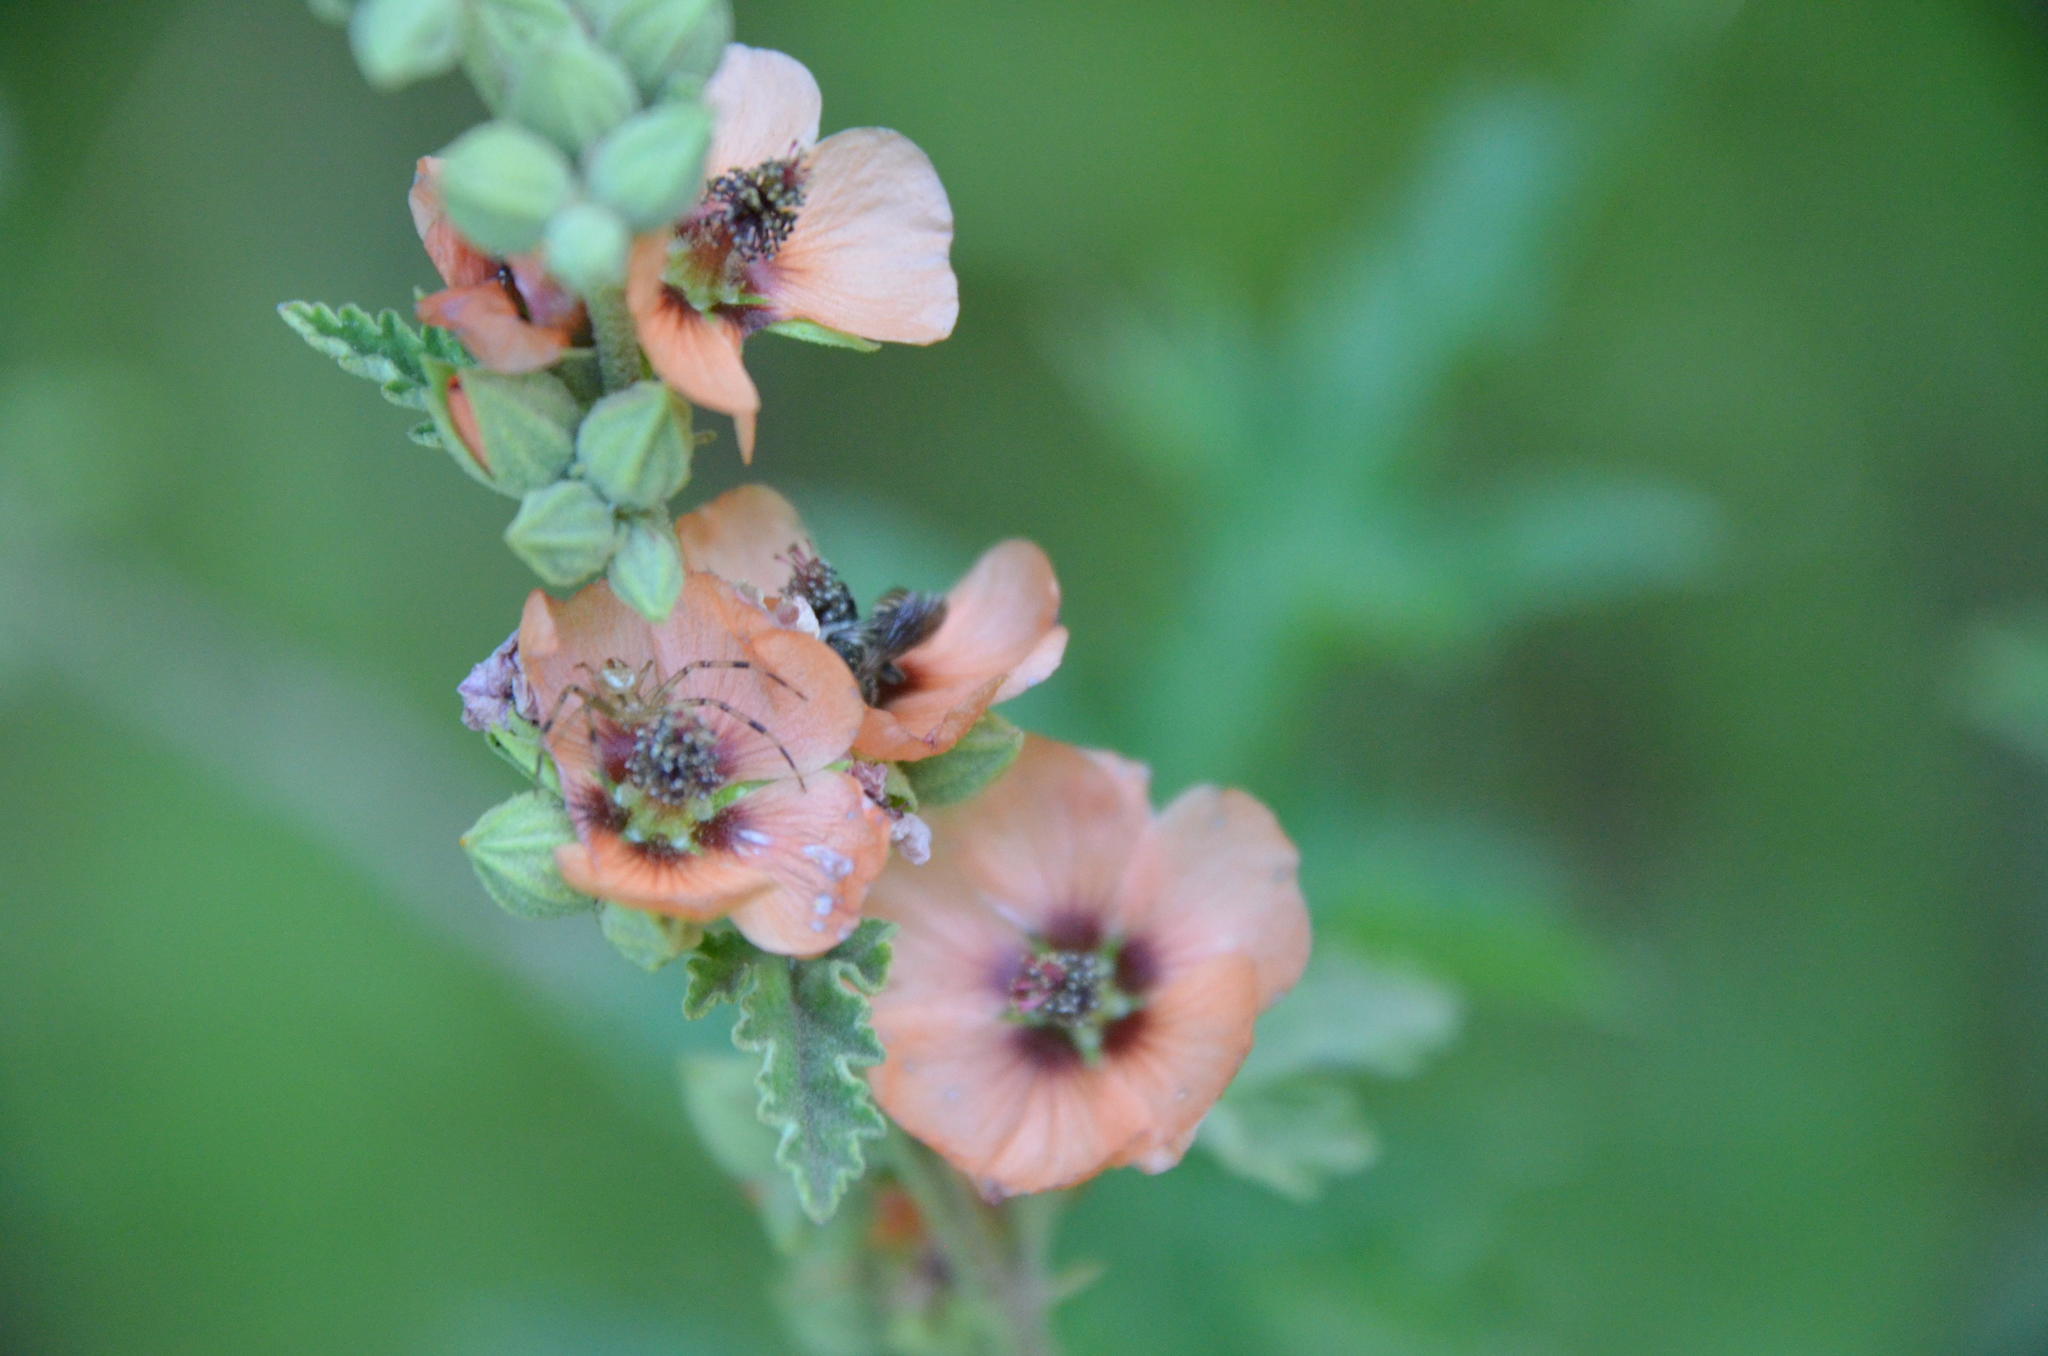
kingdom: Animalia
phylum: Arthropoda
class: Arachnida
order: Araneae
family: Thomisidae
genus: Misumenops
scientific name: Misumenops
